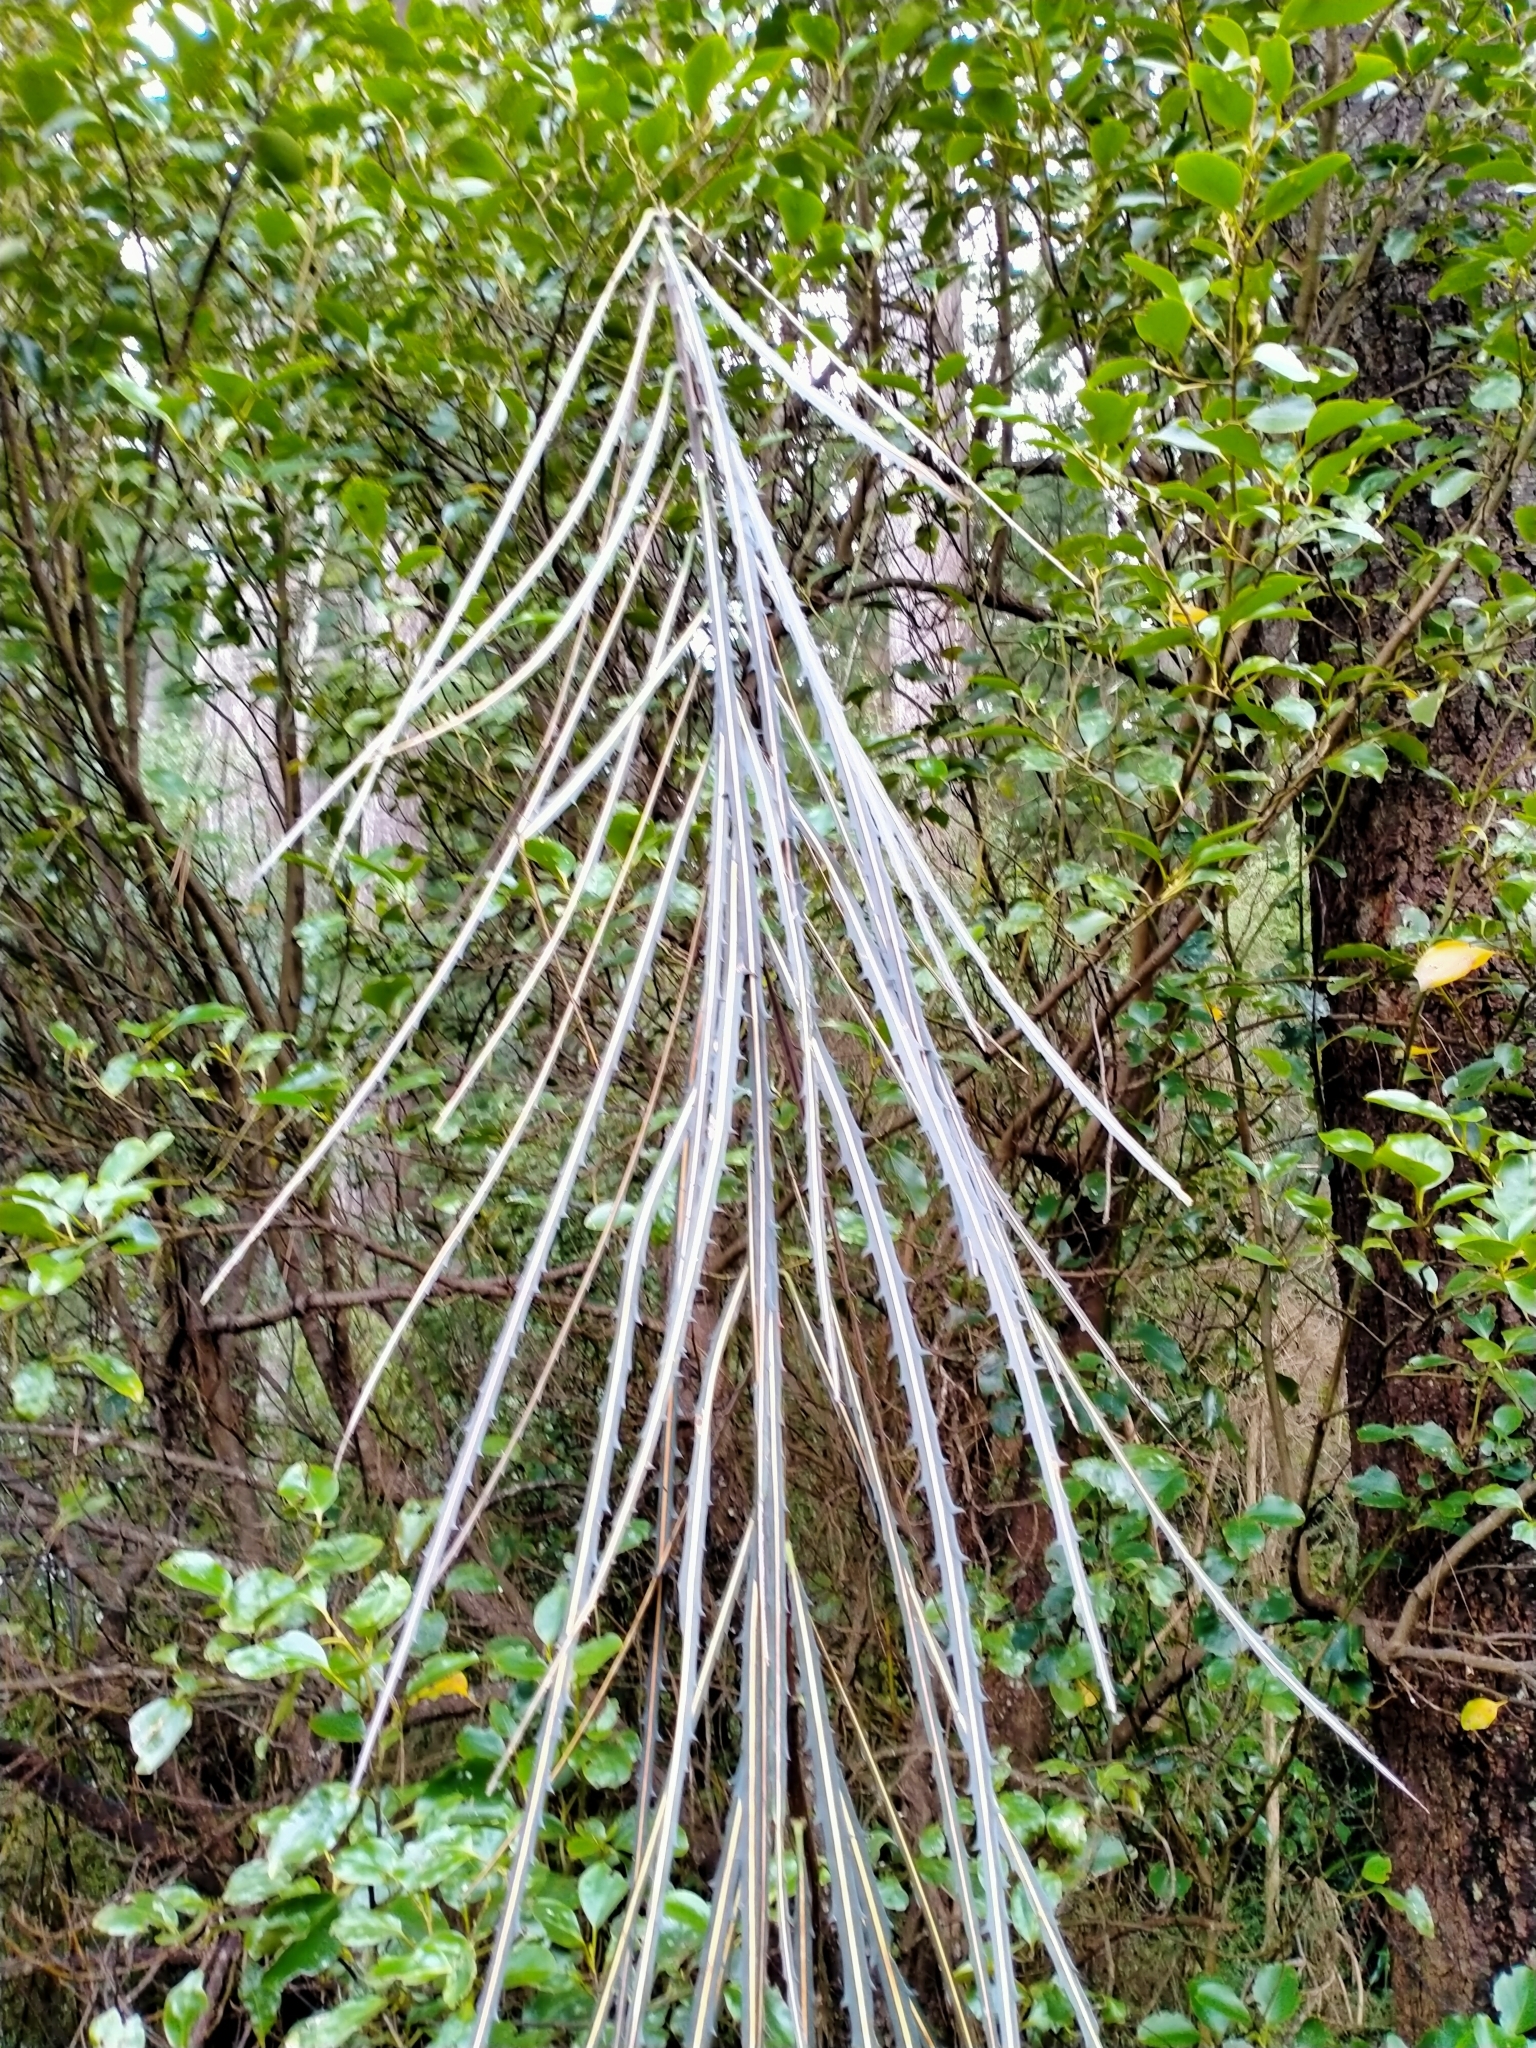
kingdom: Plantae
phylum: Tracheophyta
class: Magnoliopsida
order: Apiales
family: Araliaceae
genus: Pseudopanax
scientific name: Pseudopanax crassifolius
